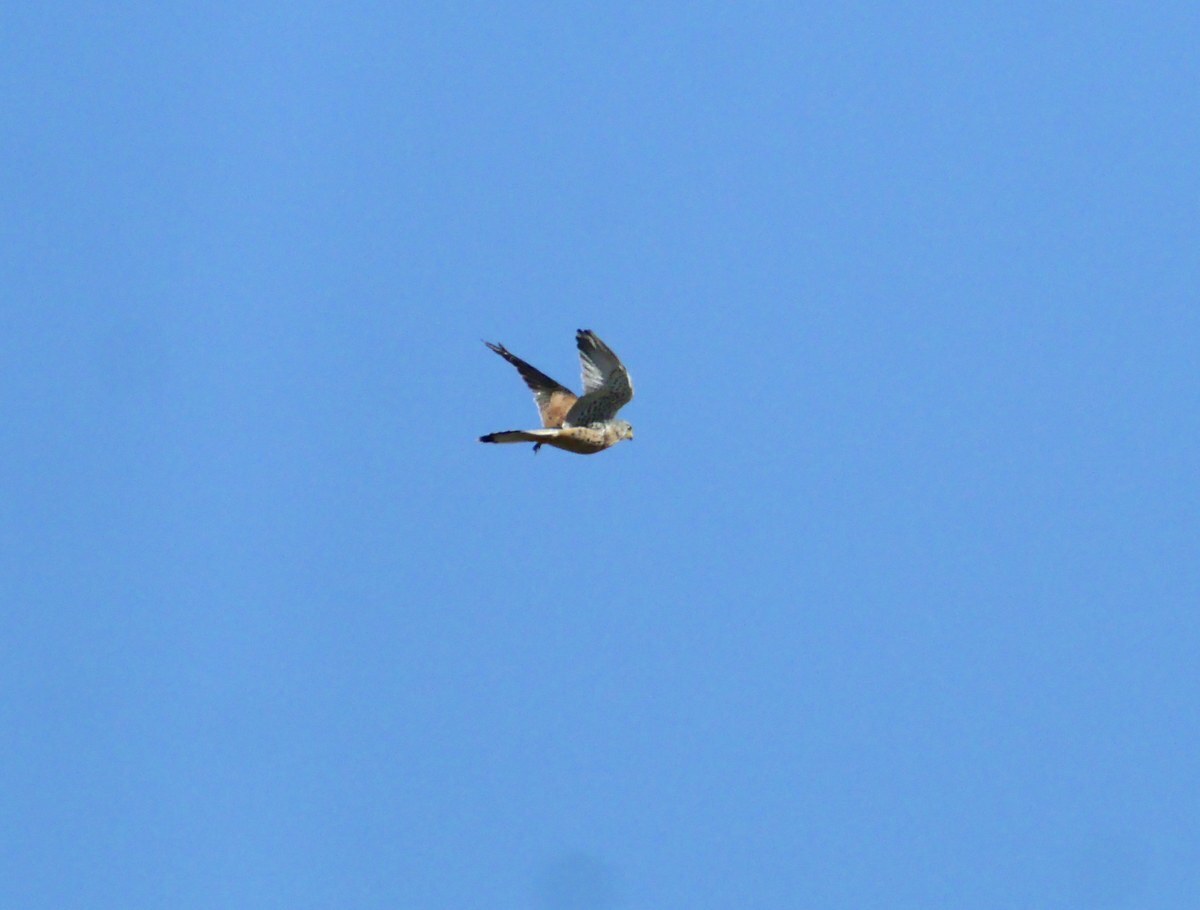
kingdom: Animalia
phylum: Chordata
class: Aves
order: Falconiformes
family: Falconidae
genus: Falco
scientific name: Falco tinnunculus
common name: Common kestrel
